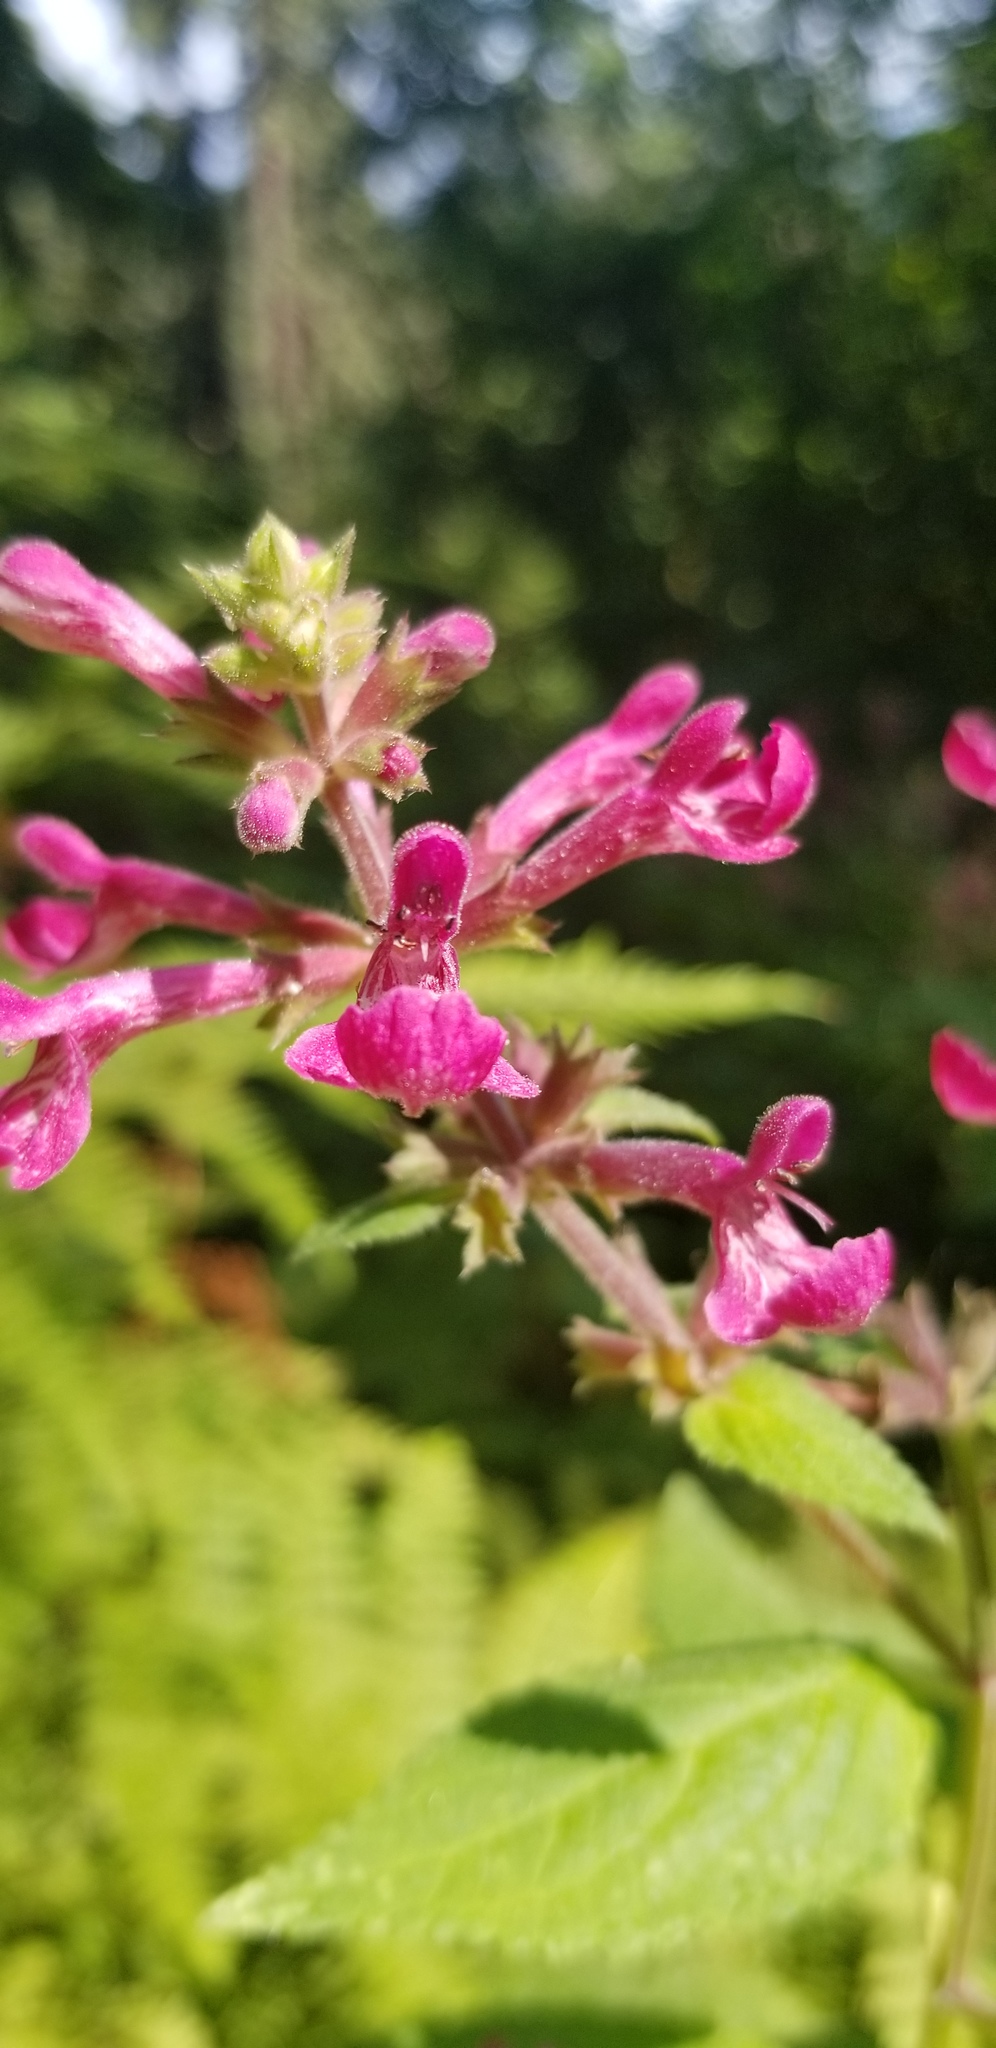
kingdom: Plantae
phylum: Tracheophyta
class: Magnoliopsida
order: Lamiales
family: Lamiaceae
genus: Stachys
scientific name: Stachys chamissonis
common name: Coastal hedge-nettle
